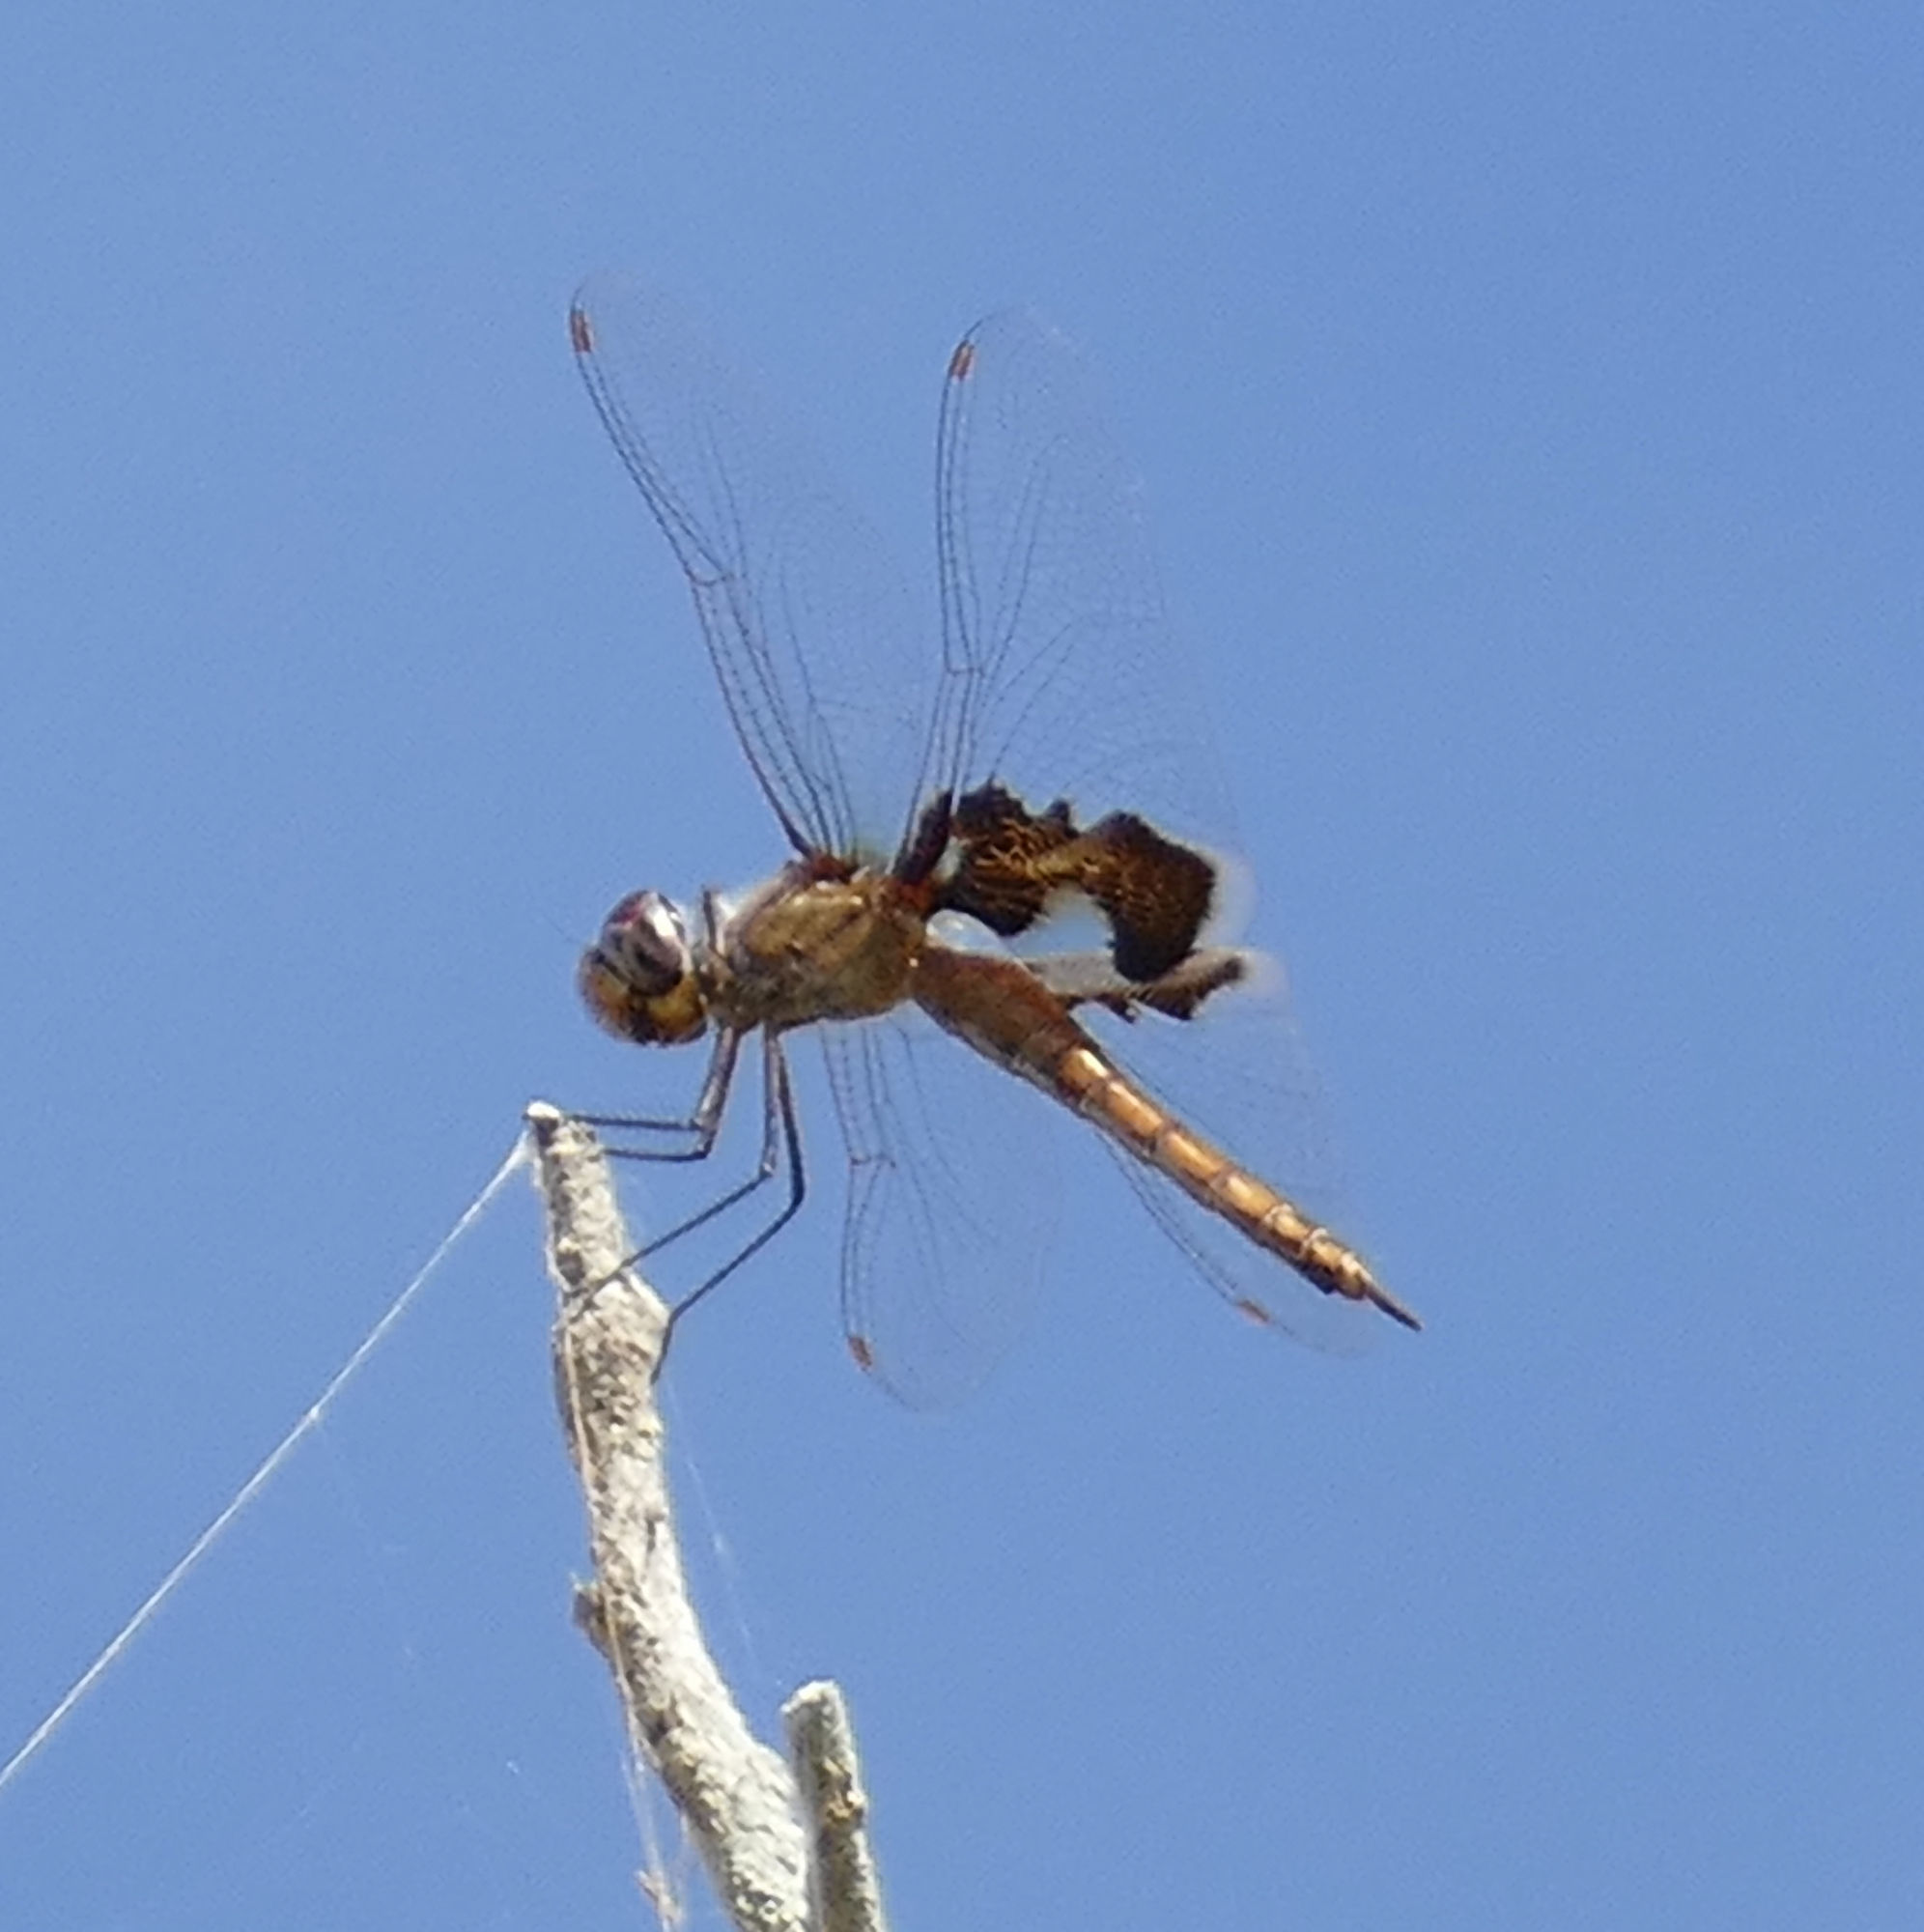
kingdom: Animalia
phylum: Arthropoda
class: Insecta
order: Odonata
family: Libellulidae
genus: Tramea
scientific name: Tramea onusta
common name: Red saddlebags
